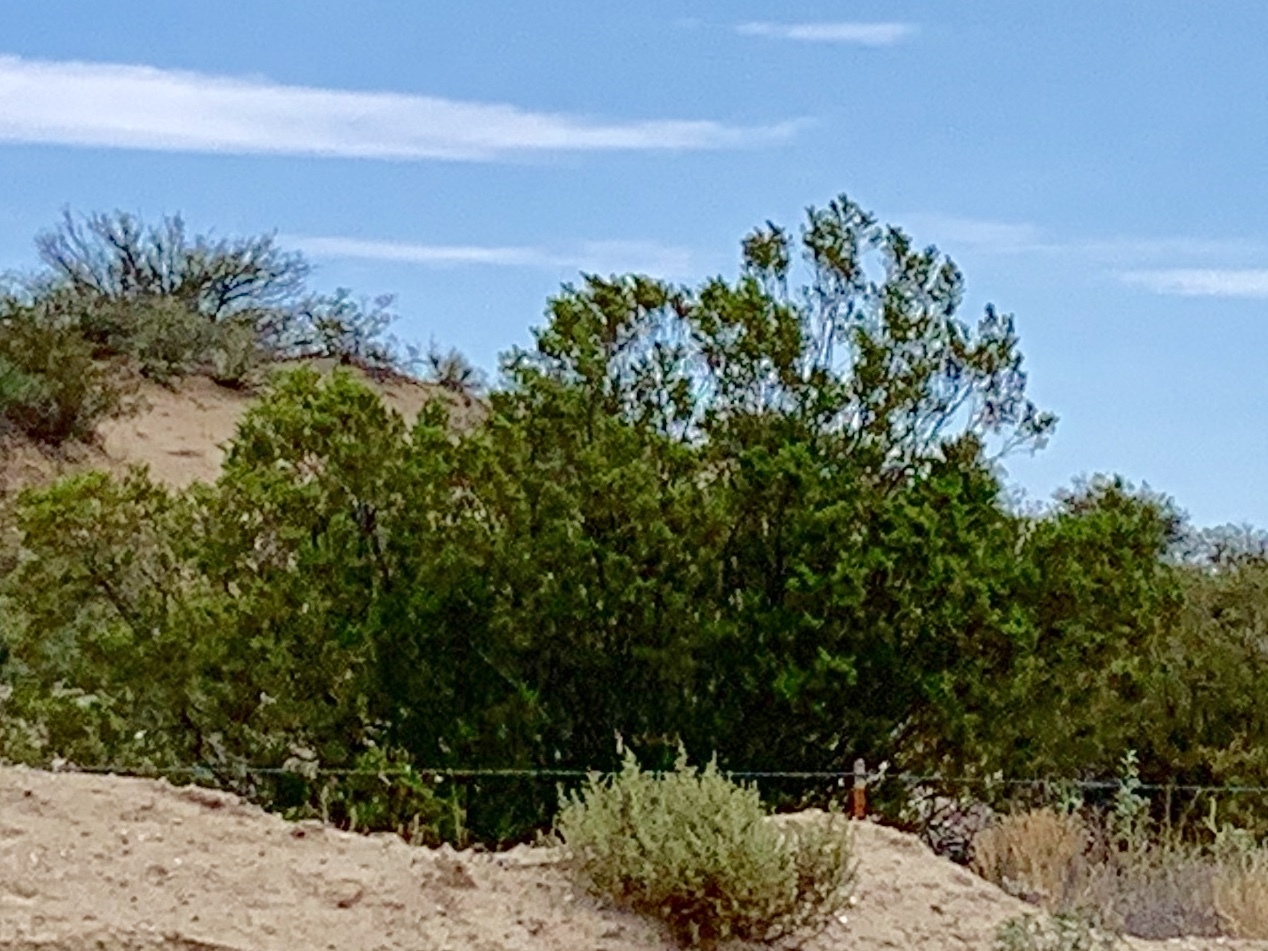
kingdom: Plantae
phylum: Tracheophyta
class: Magnoliopsida
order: Zygophyllales
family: Zygophyllaceae
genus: Larrea
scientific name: Larrea tridentata
